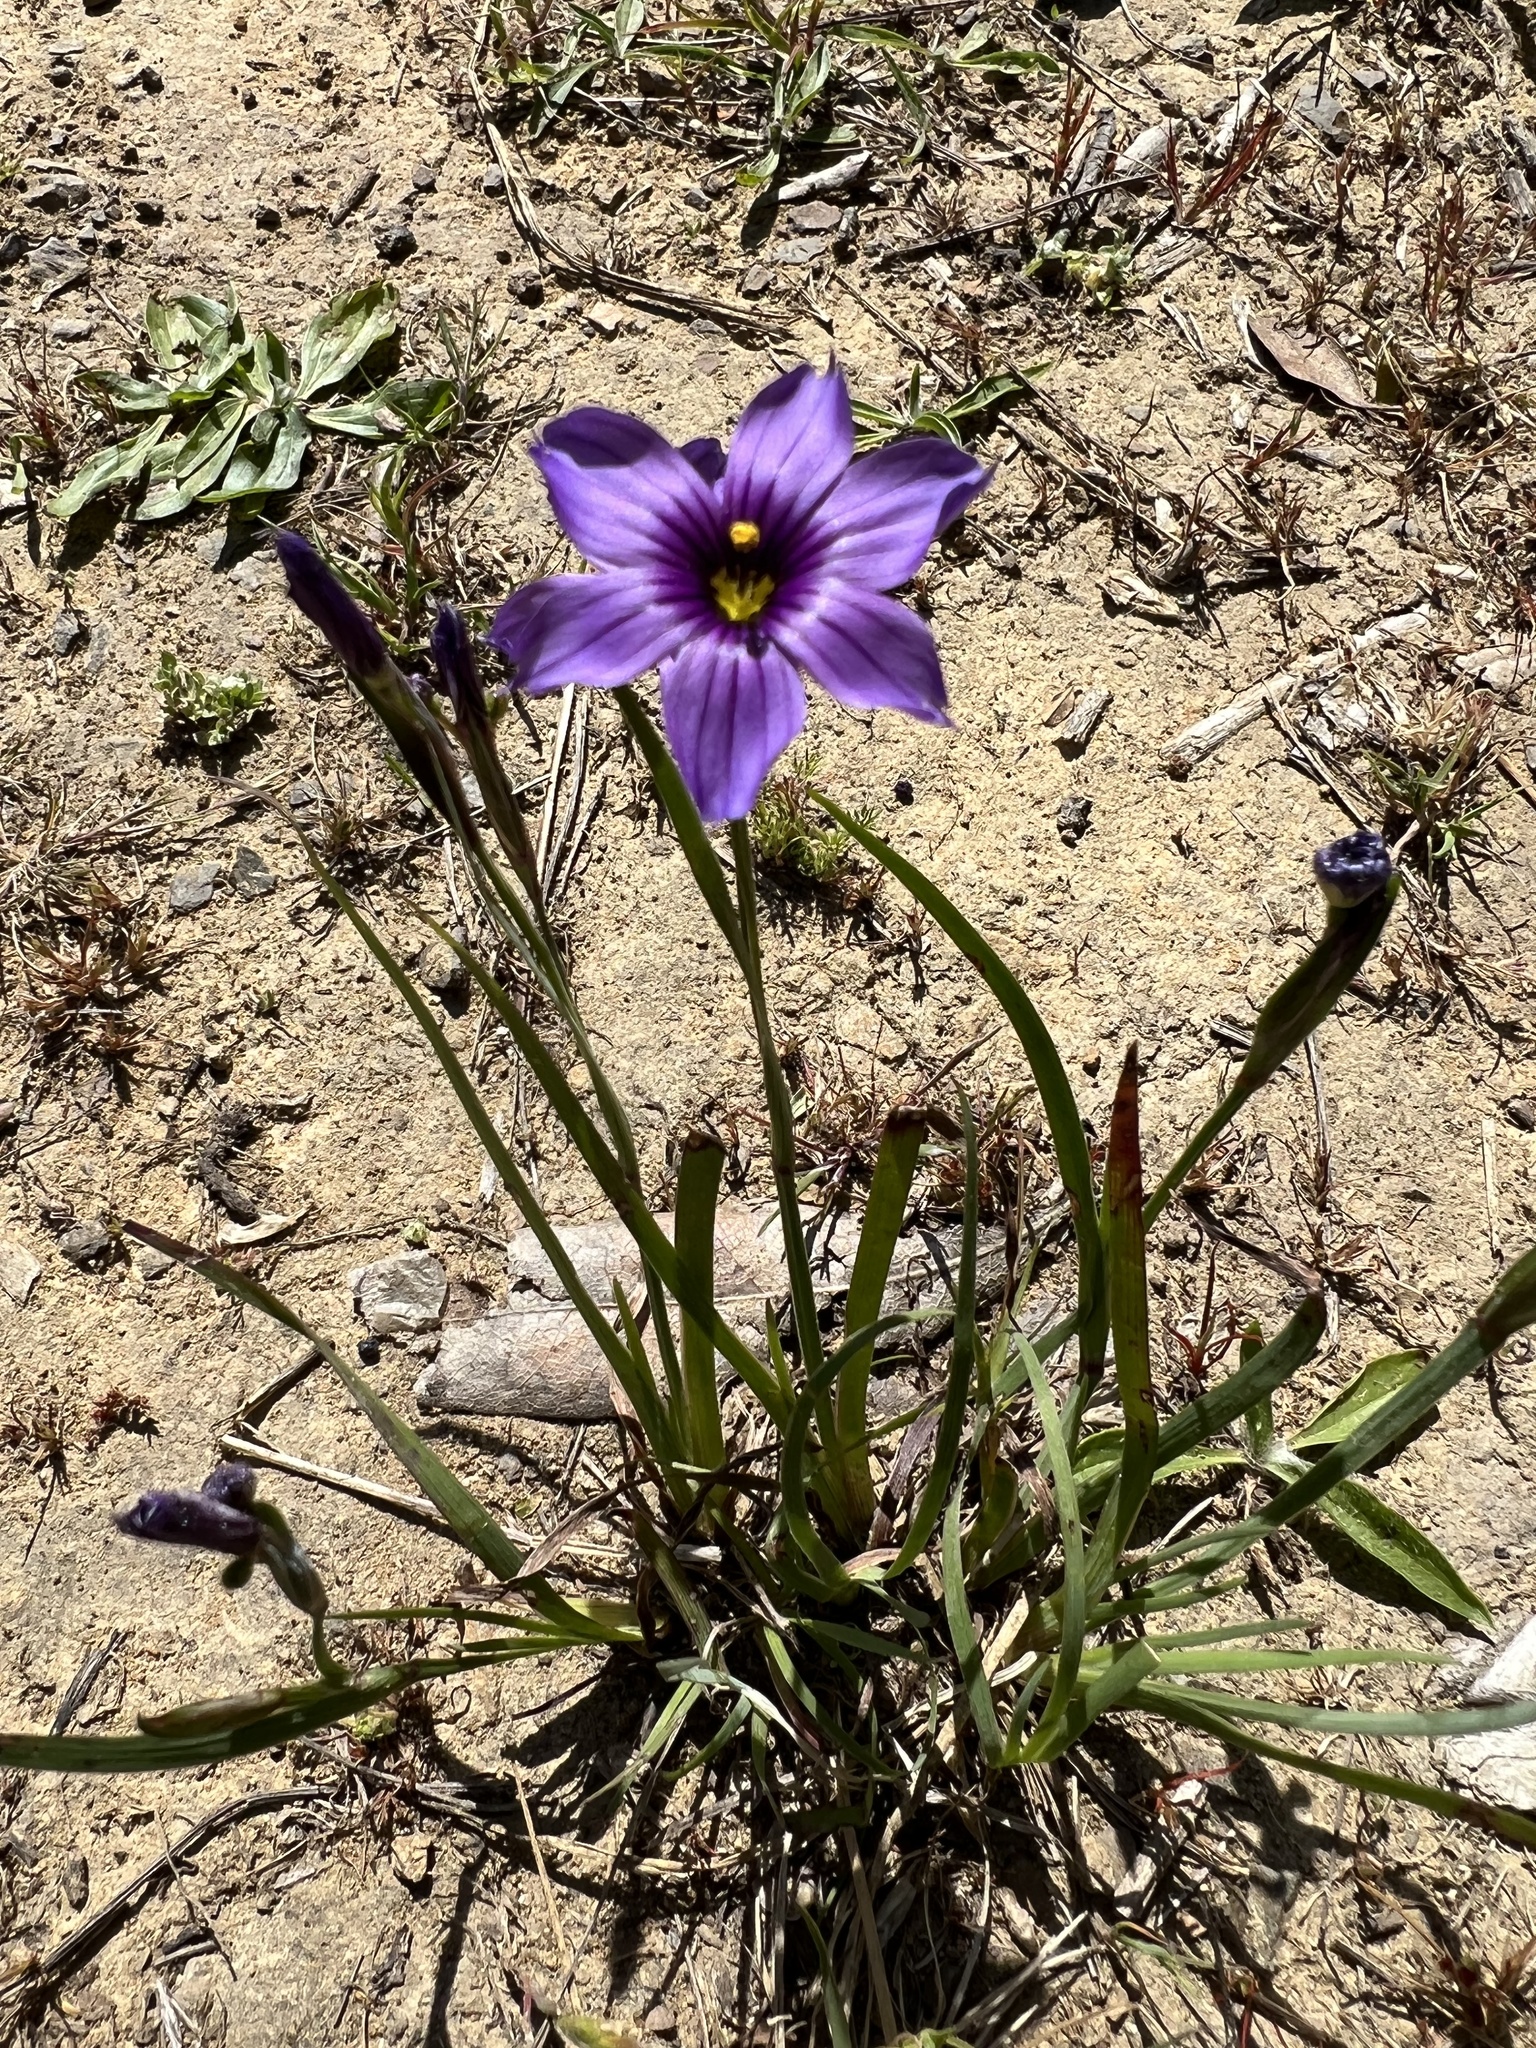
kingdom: Plantae
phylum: Tracheophyta
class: Liliopsida
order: Asparagales
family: Iridaceae
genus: Sisyrinchium
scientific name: Sisyrinchium bellum
